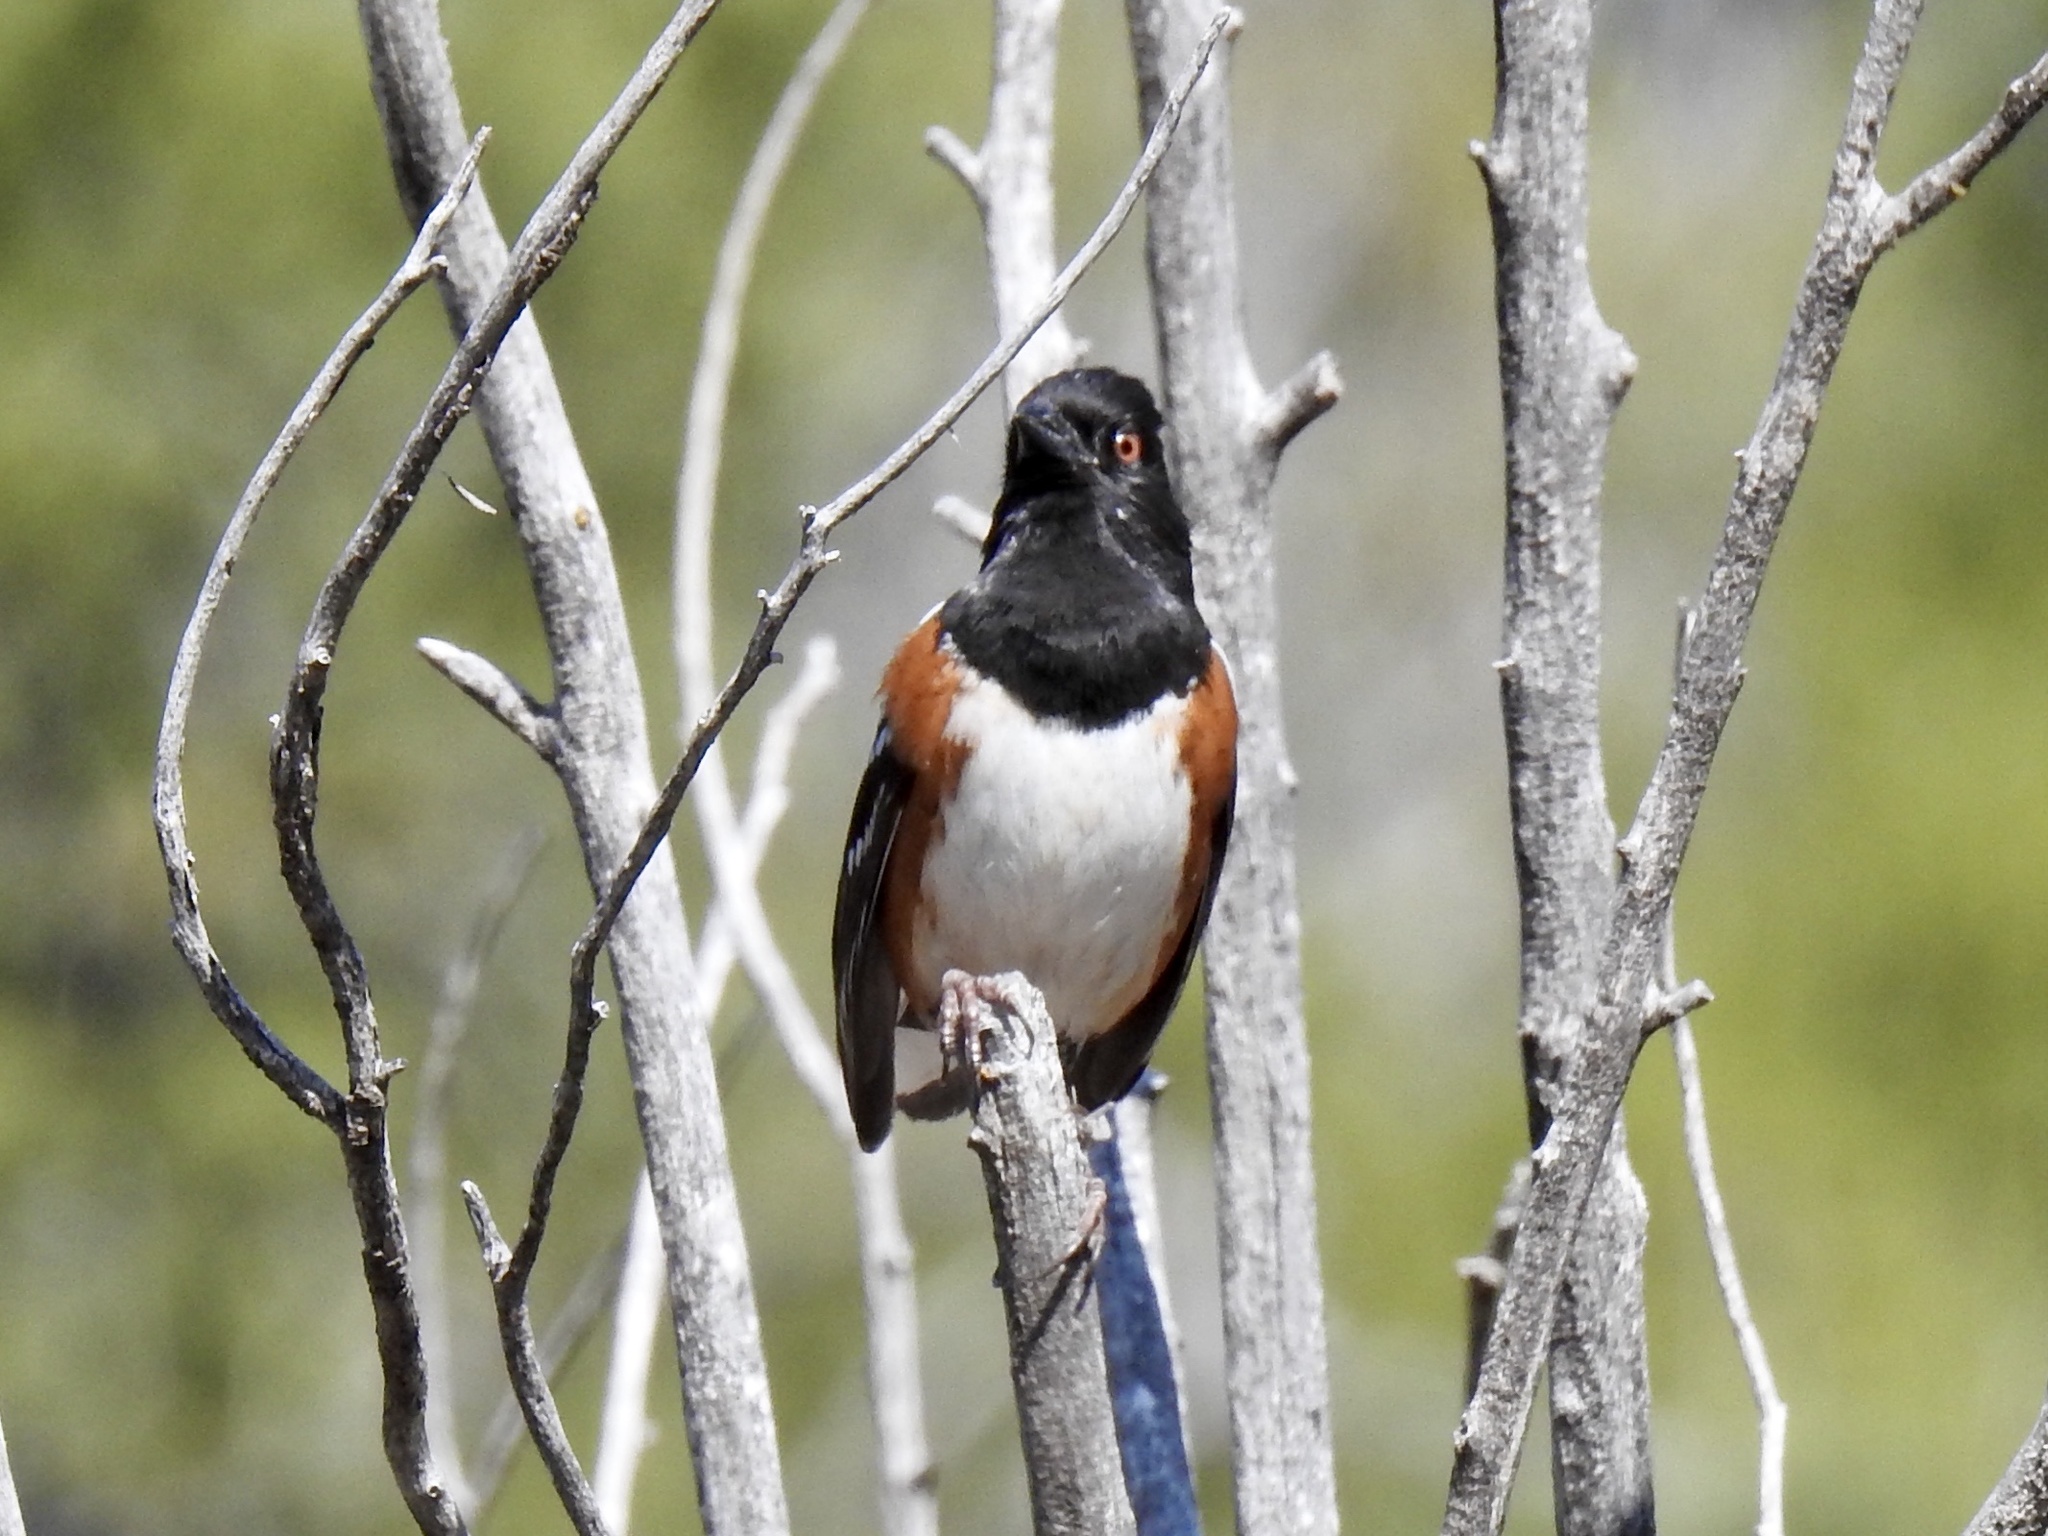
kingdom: Animalia
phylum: Chordata
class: Aves
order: Passeriformes
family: Passerellidae
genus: Pipilo
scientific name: Pipilo maculatus
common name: Spotted towhee
